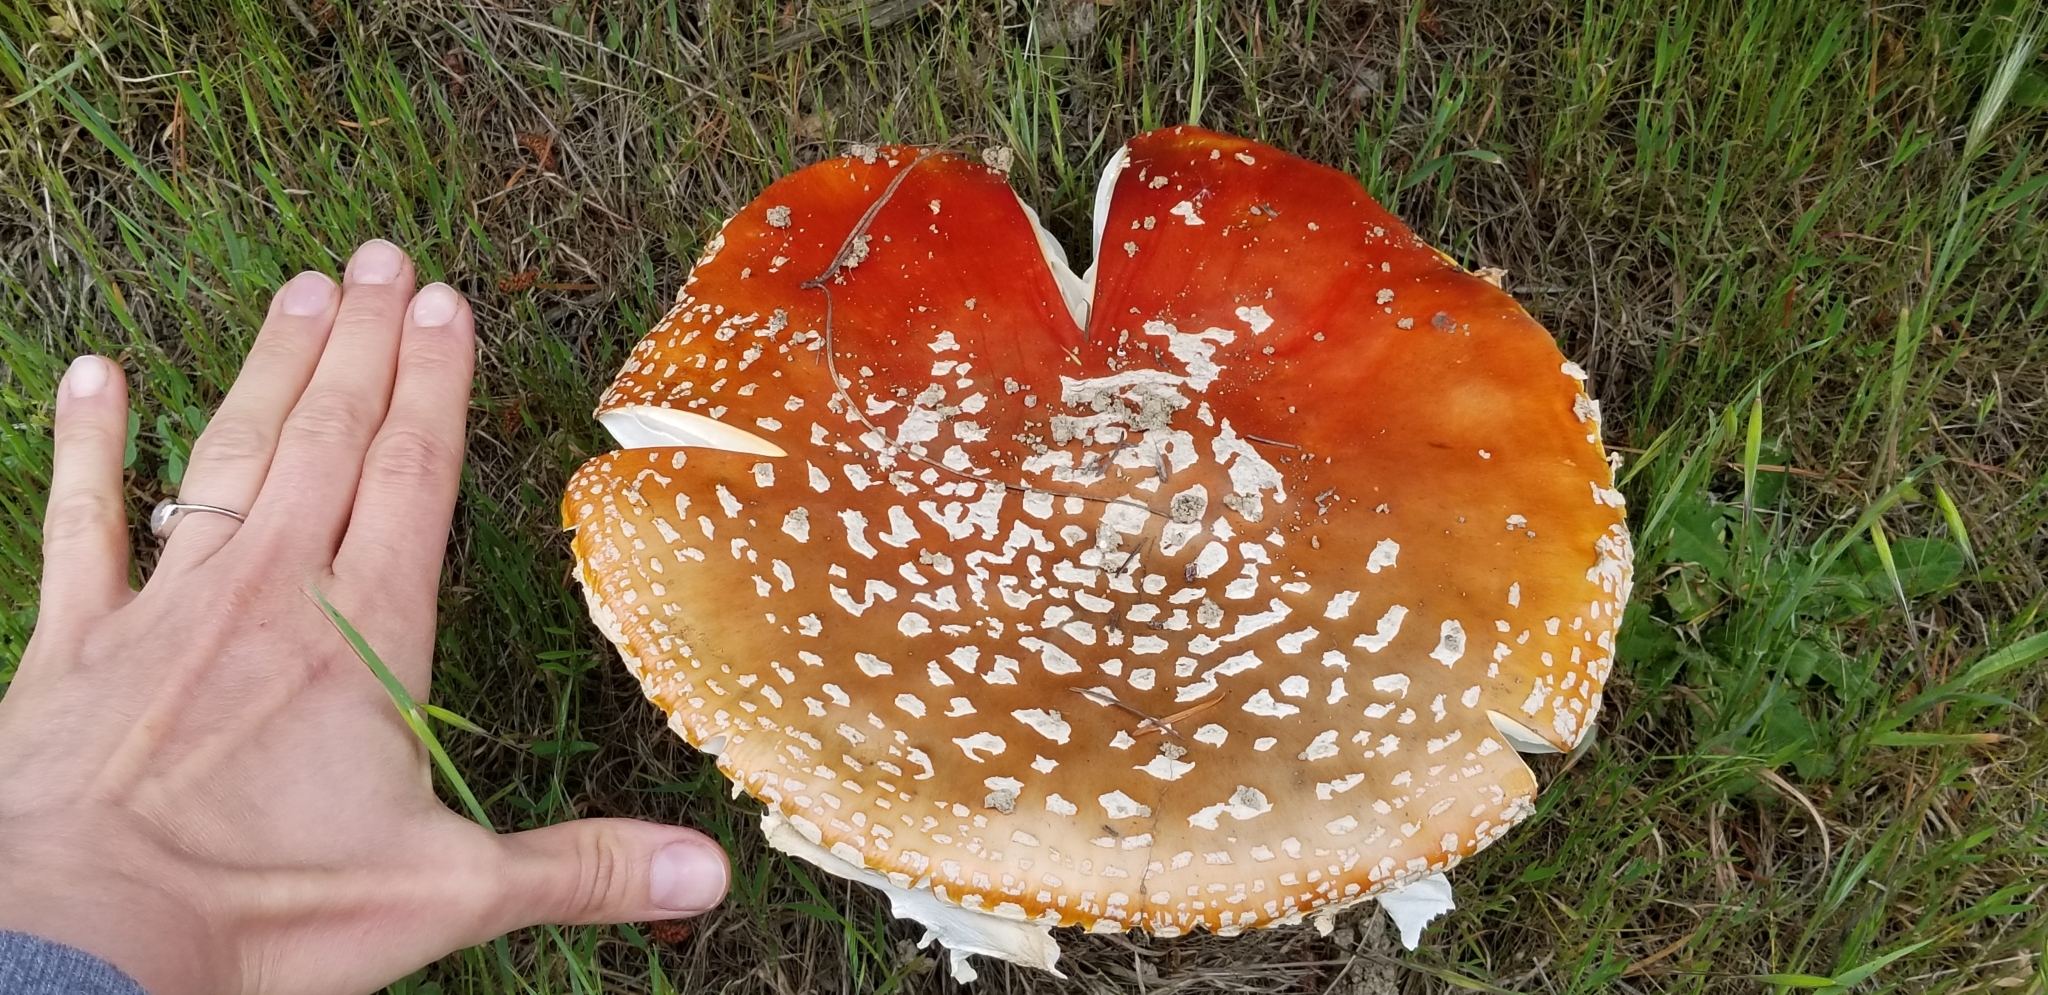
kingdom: Fungi
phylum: Basidiomycota
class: Agaricomycetes
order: Agaricales
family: Amanitaceae
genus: Amanita
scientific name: Amanita muscaria
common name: Fly agaric
